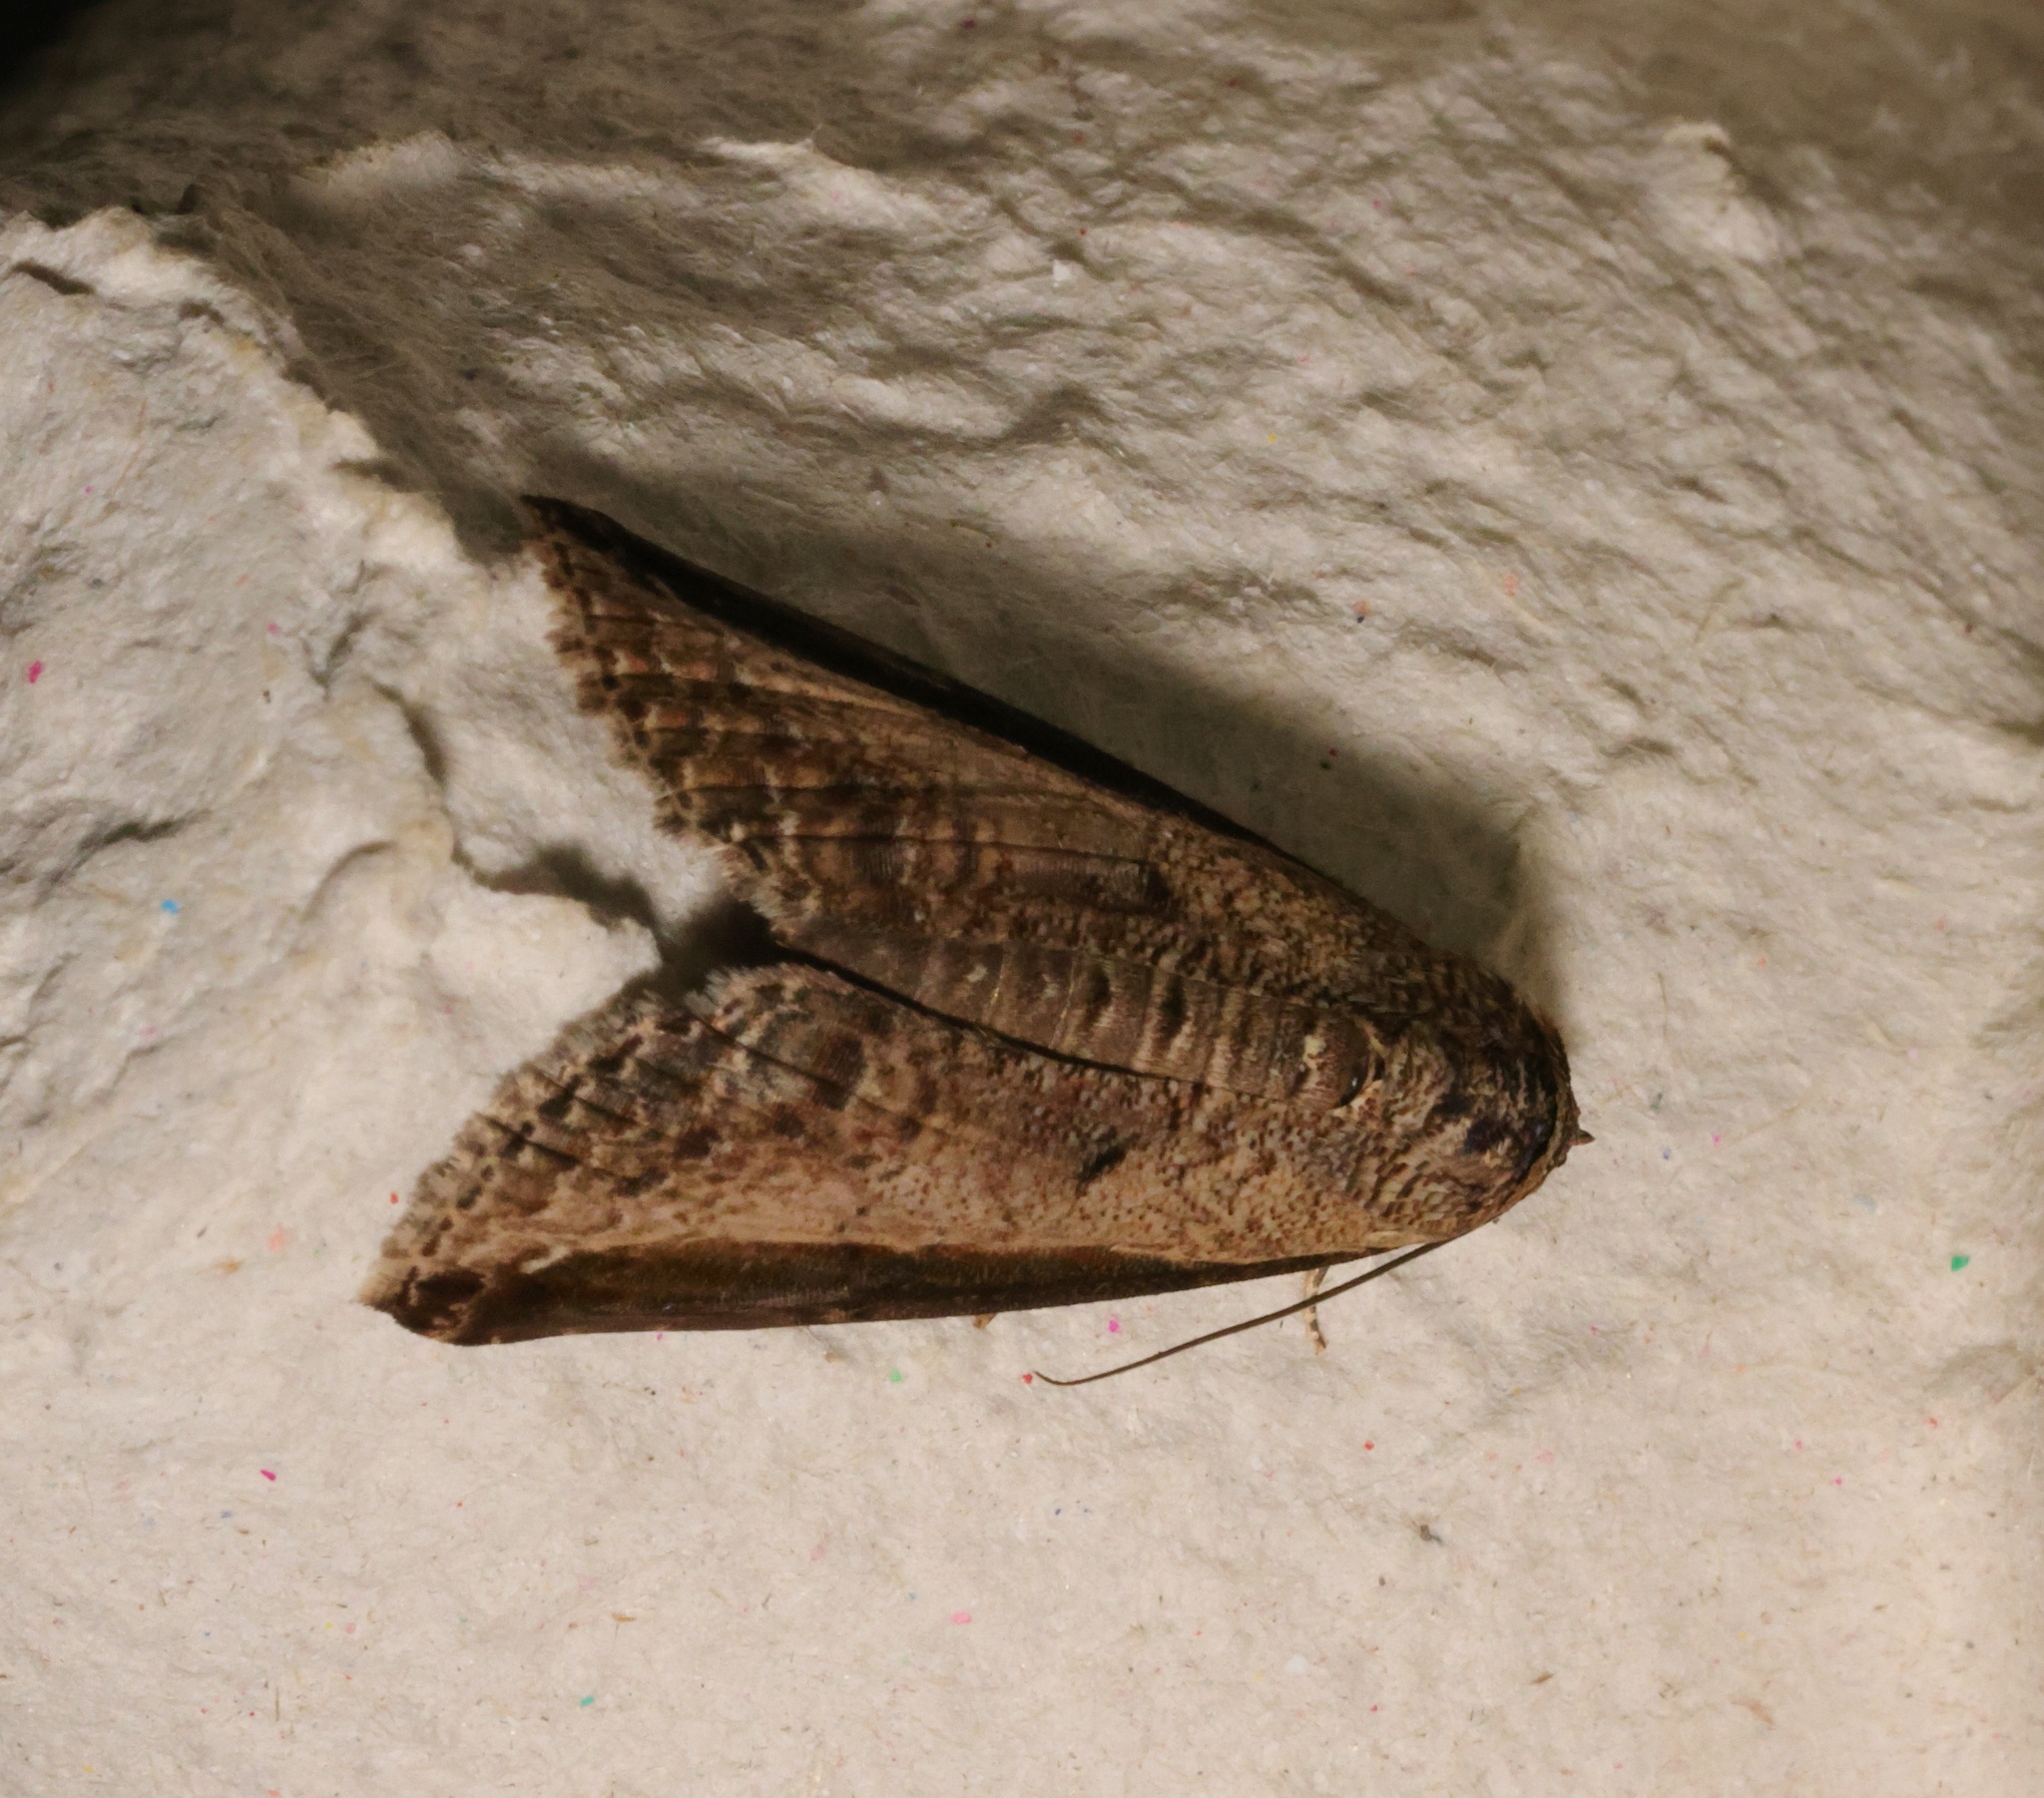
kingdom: Animalia
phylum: Arthropoda
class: Insecta
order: Lepidoptera
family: Euteliidae
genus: Lophoptera
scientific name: Lophoptera squammigera
